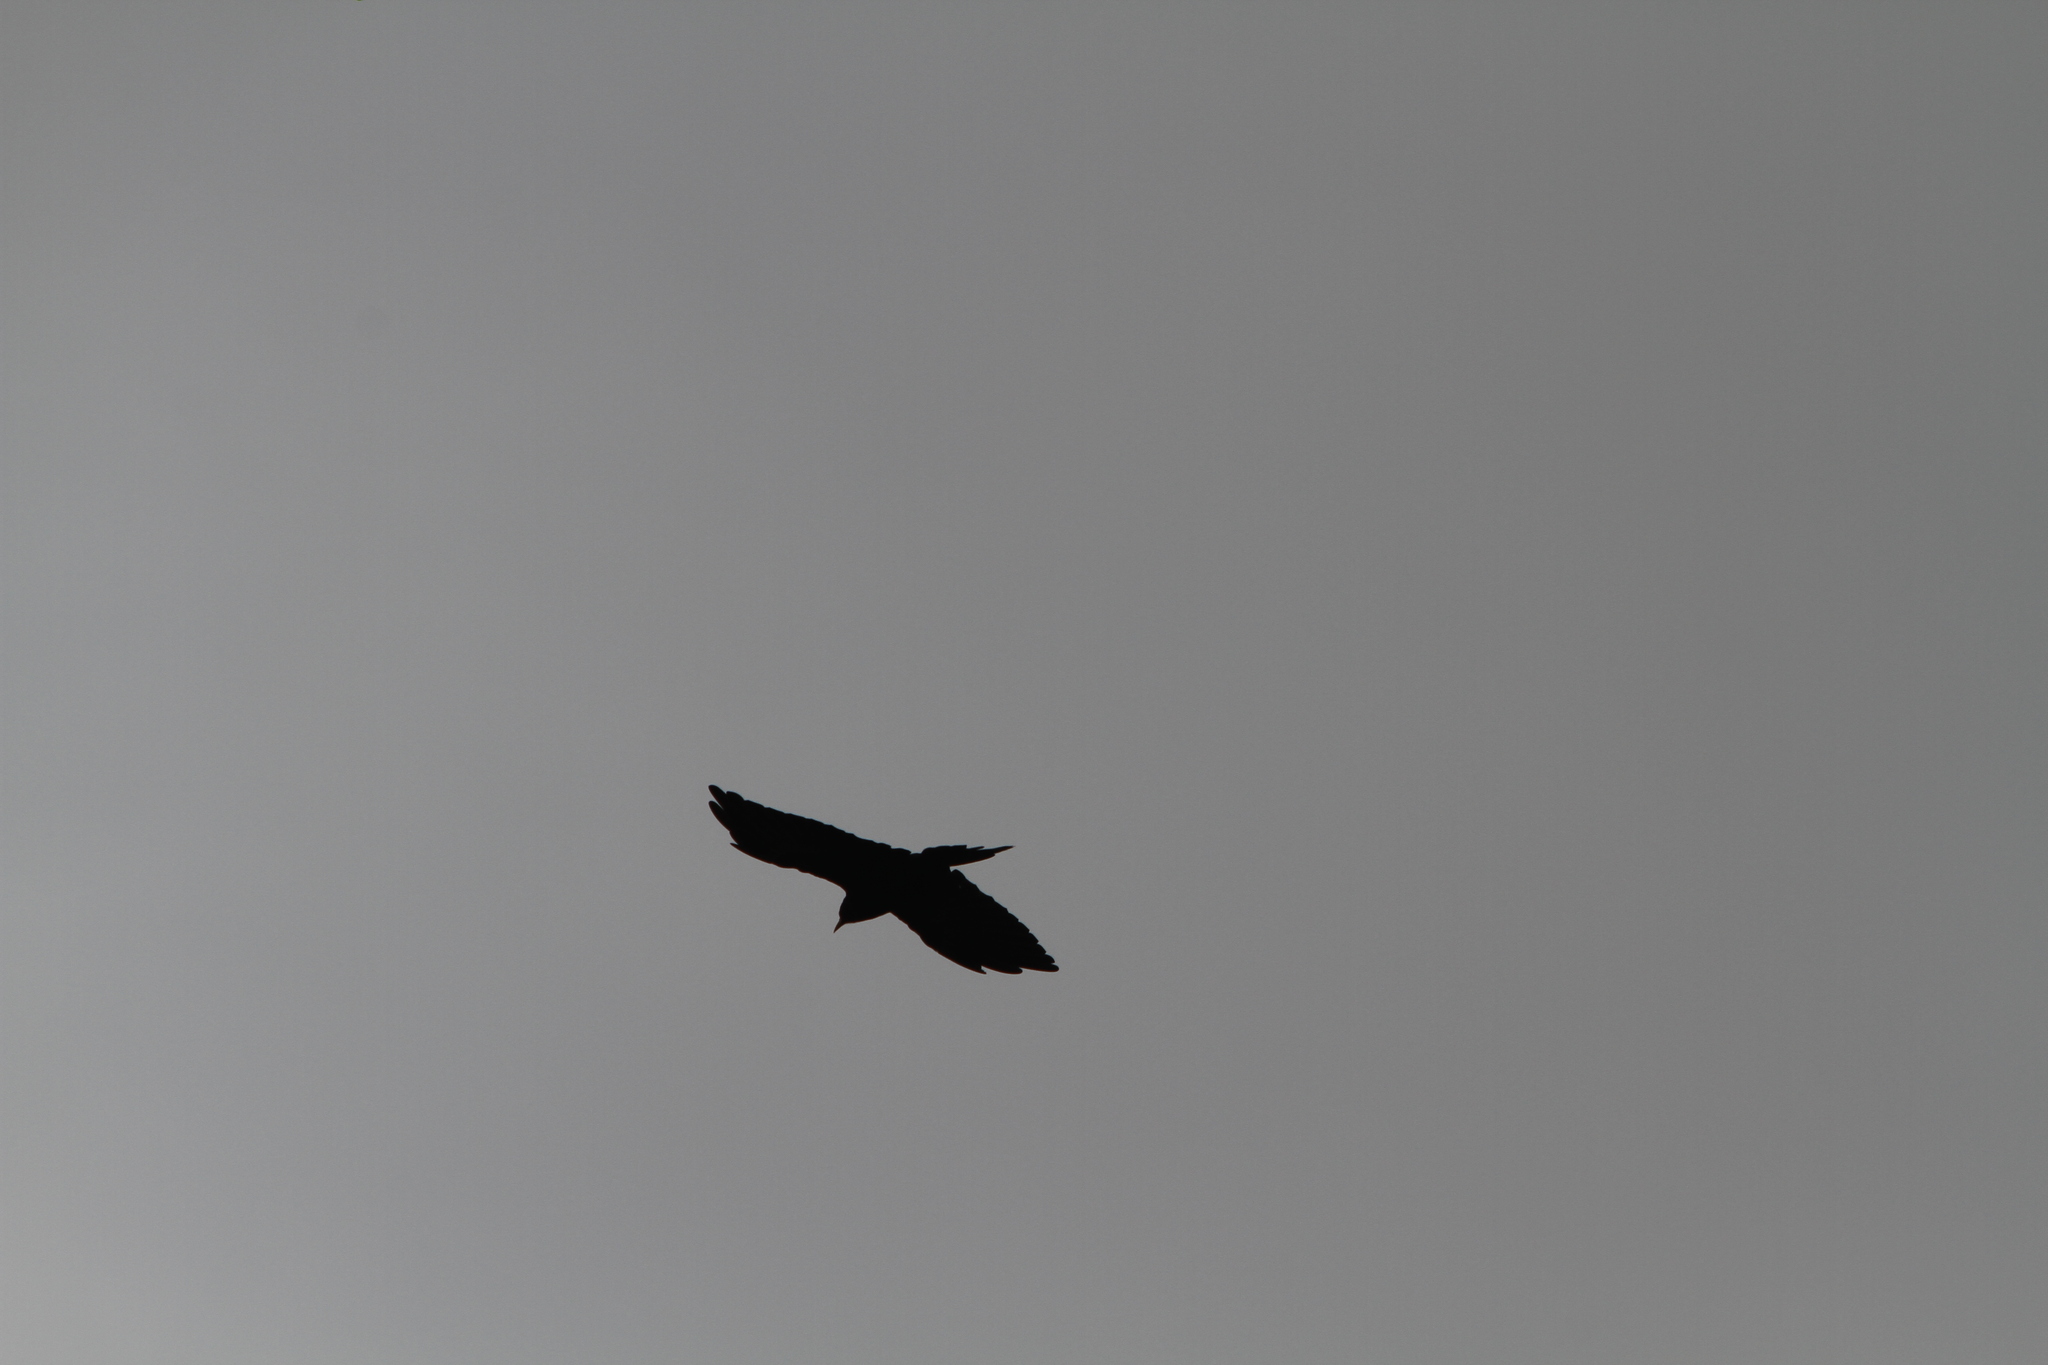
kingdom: Animalia
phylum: Chordata
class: Aves
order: Passeriformes
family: Corvidae
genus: Pyrrhocorax
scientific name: Pyrrhocorax graculus
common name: Alpine chough
